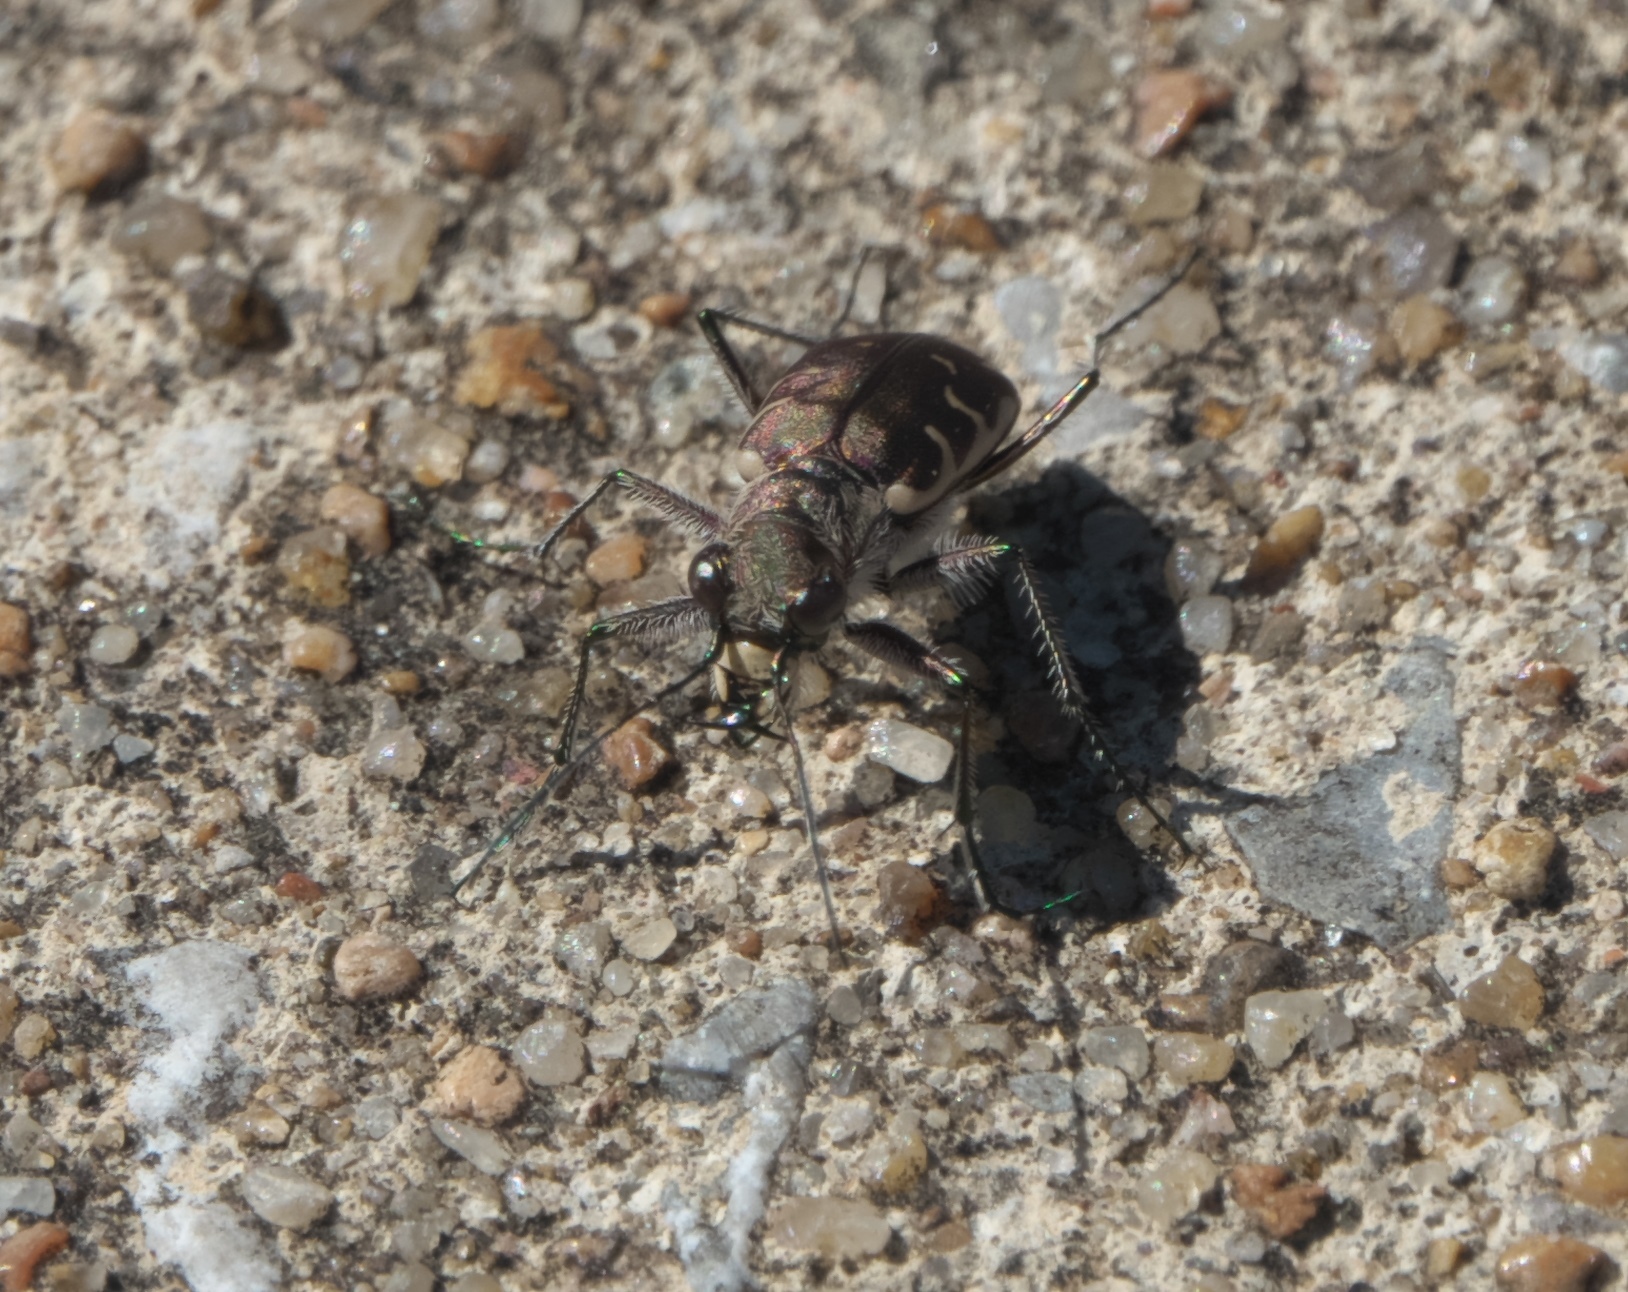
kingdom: Animalia
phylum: Arthropoda
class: Insecta
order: Coleoptera
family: Carabidae
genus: Cicindela
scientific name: Cicindela repanda
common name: Bronzed tiger beetle
